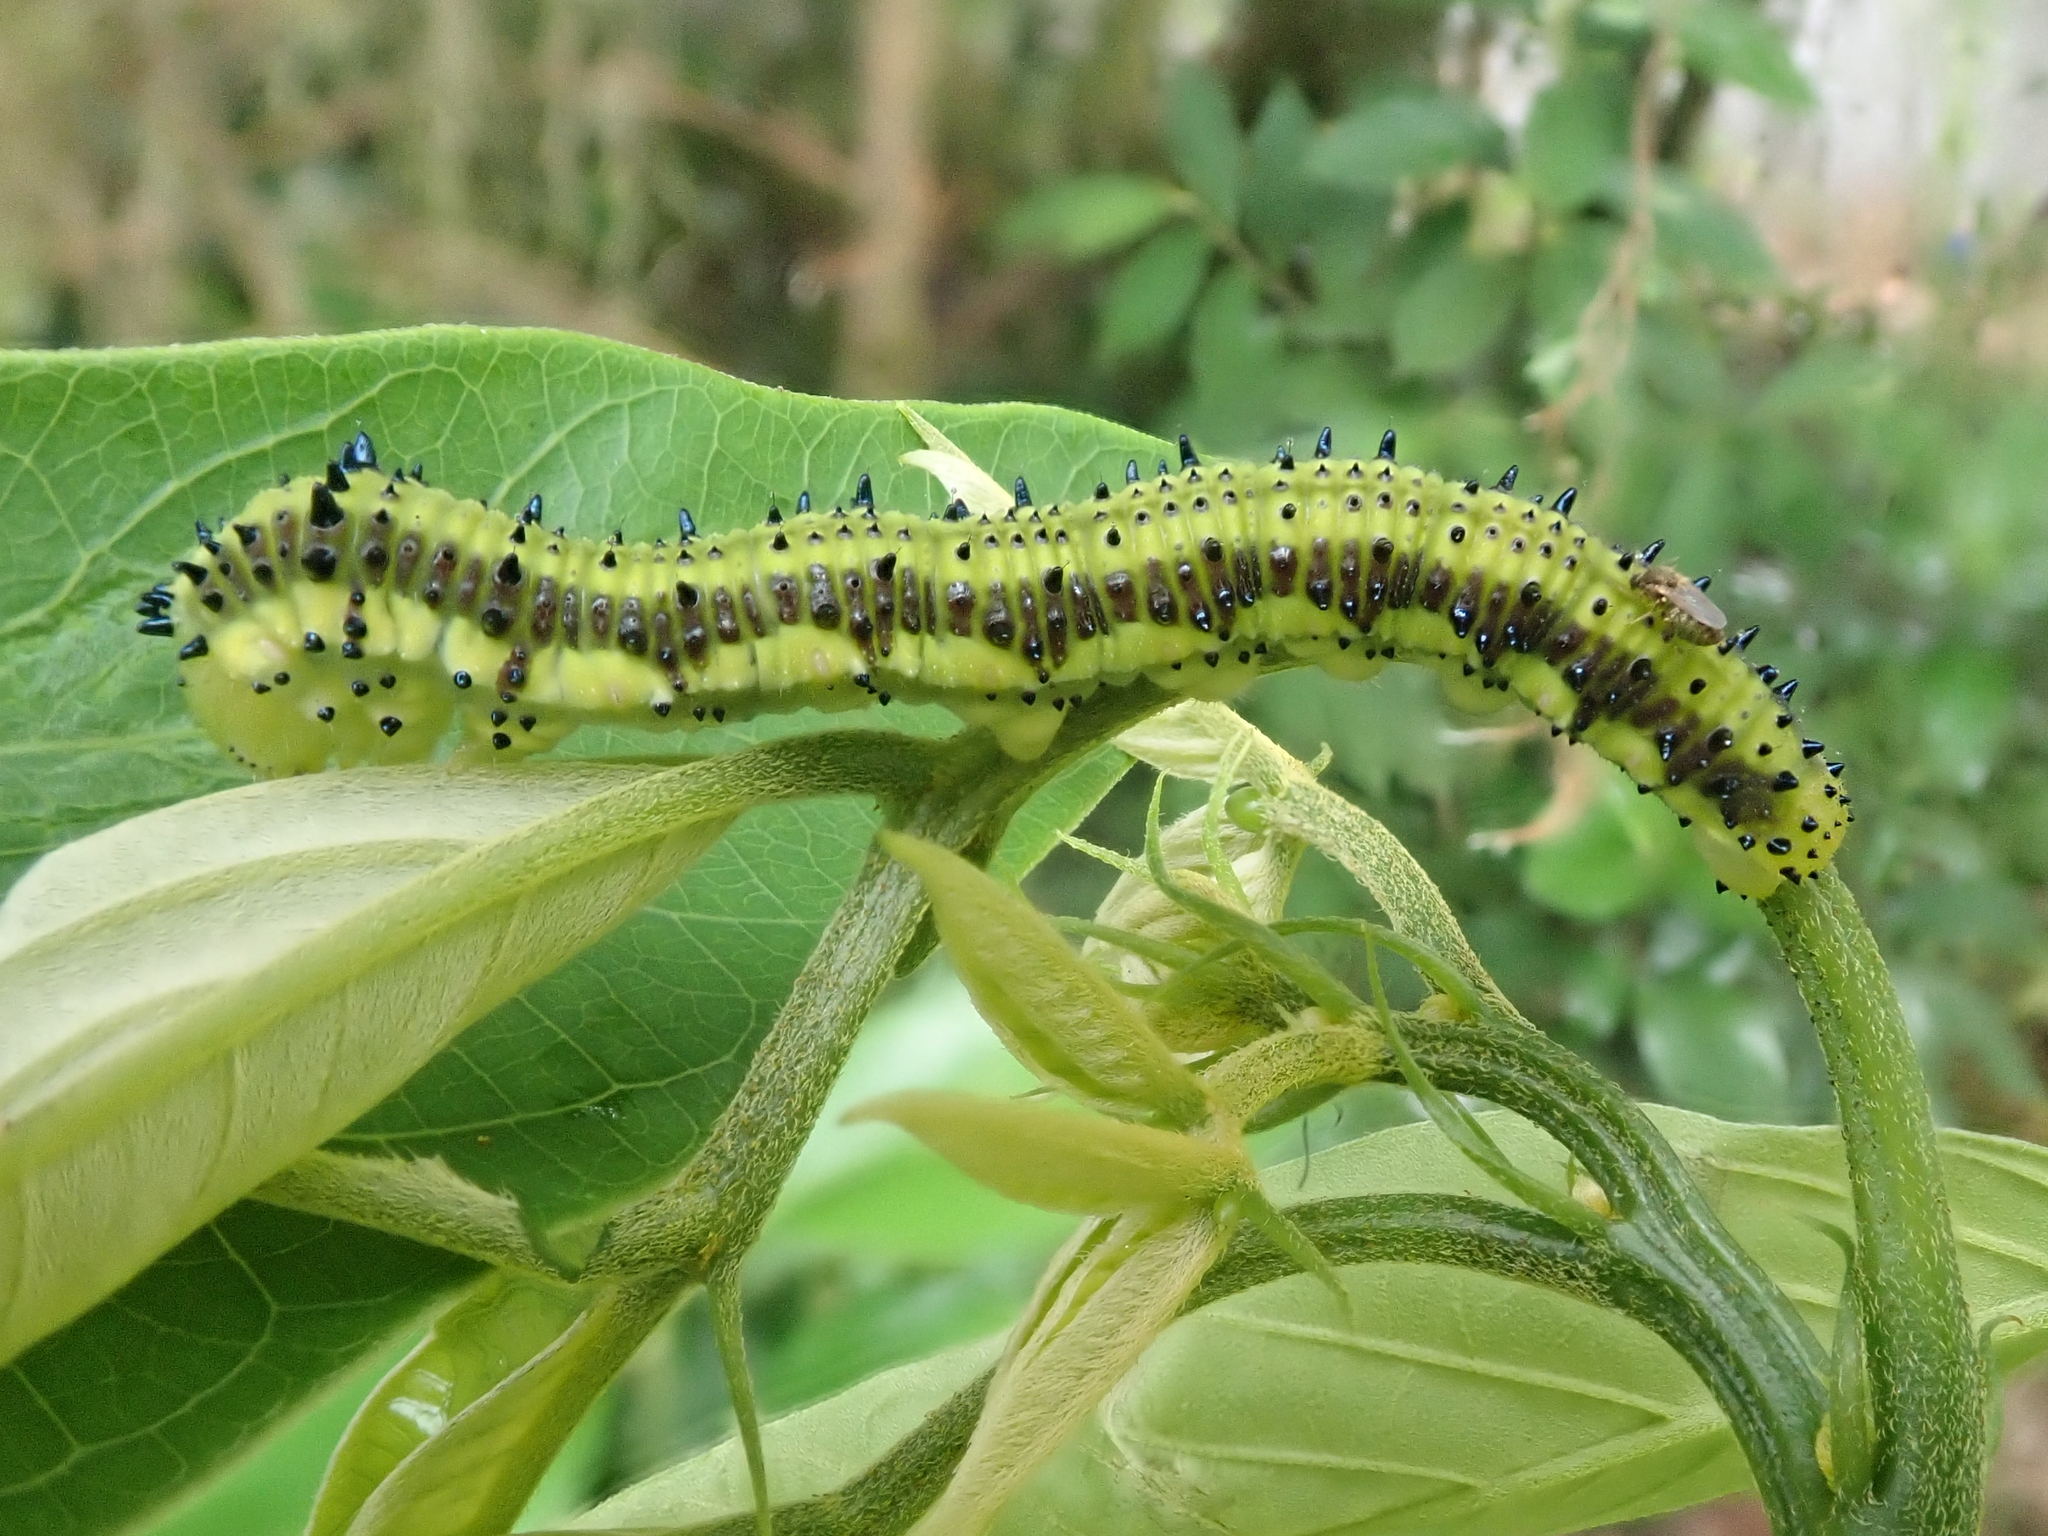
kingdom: Animalia
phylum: Arthropoda
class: Insecta
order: Lepidoptera
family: Pieridae
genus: Phoebis
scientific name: Phoebis philea
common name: Orange-barred giant sulphur
